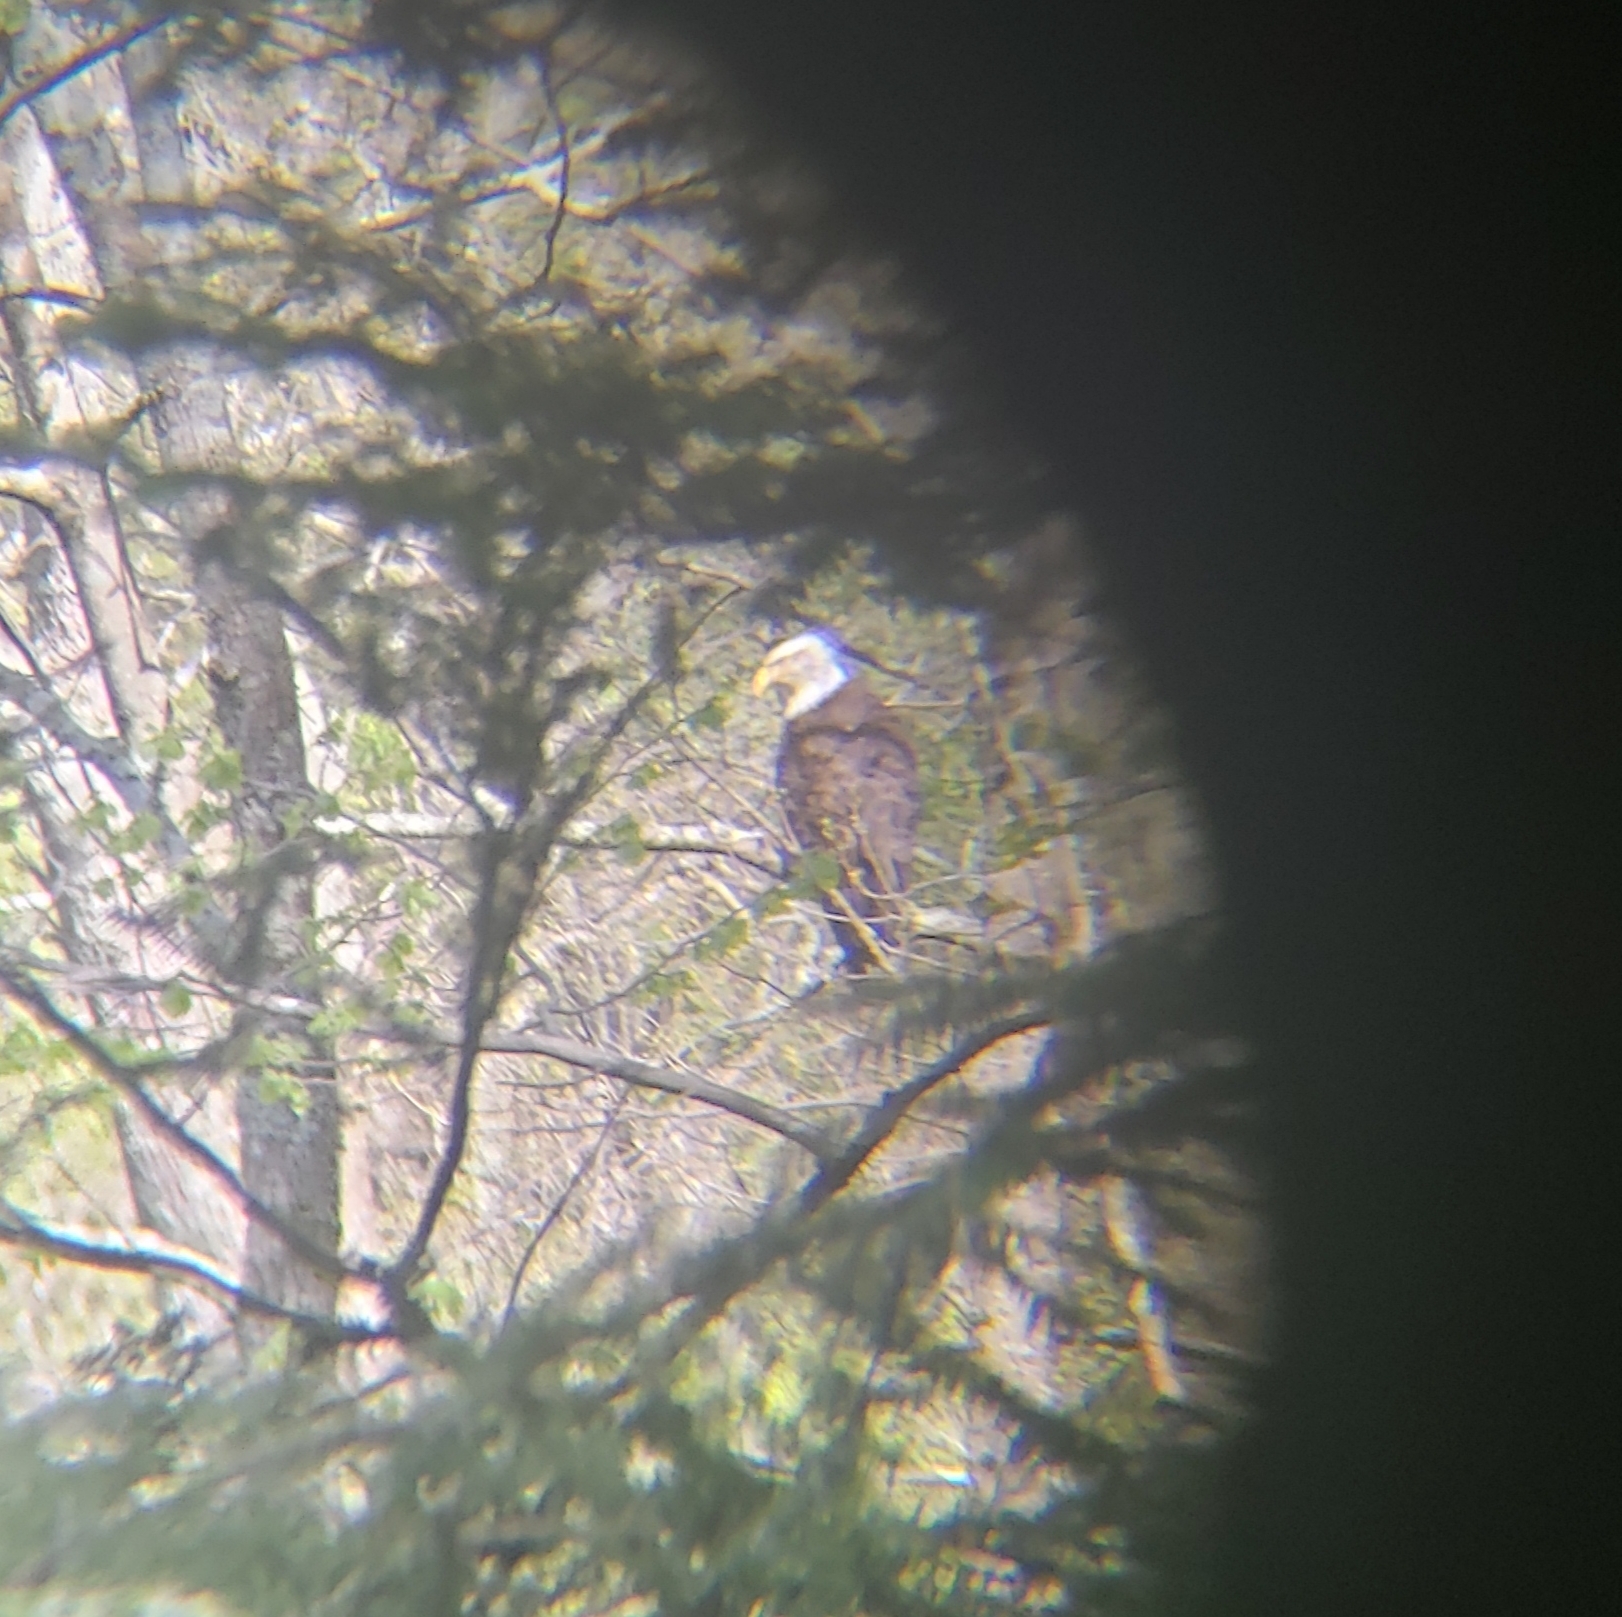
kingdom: Animalia
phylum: Chordata
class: Aves
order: Accipitriformes
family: Accipitridae
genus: Haliaeetus
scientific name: Haliaeetus leucocephalus
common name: Bald eagle
